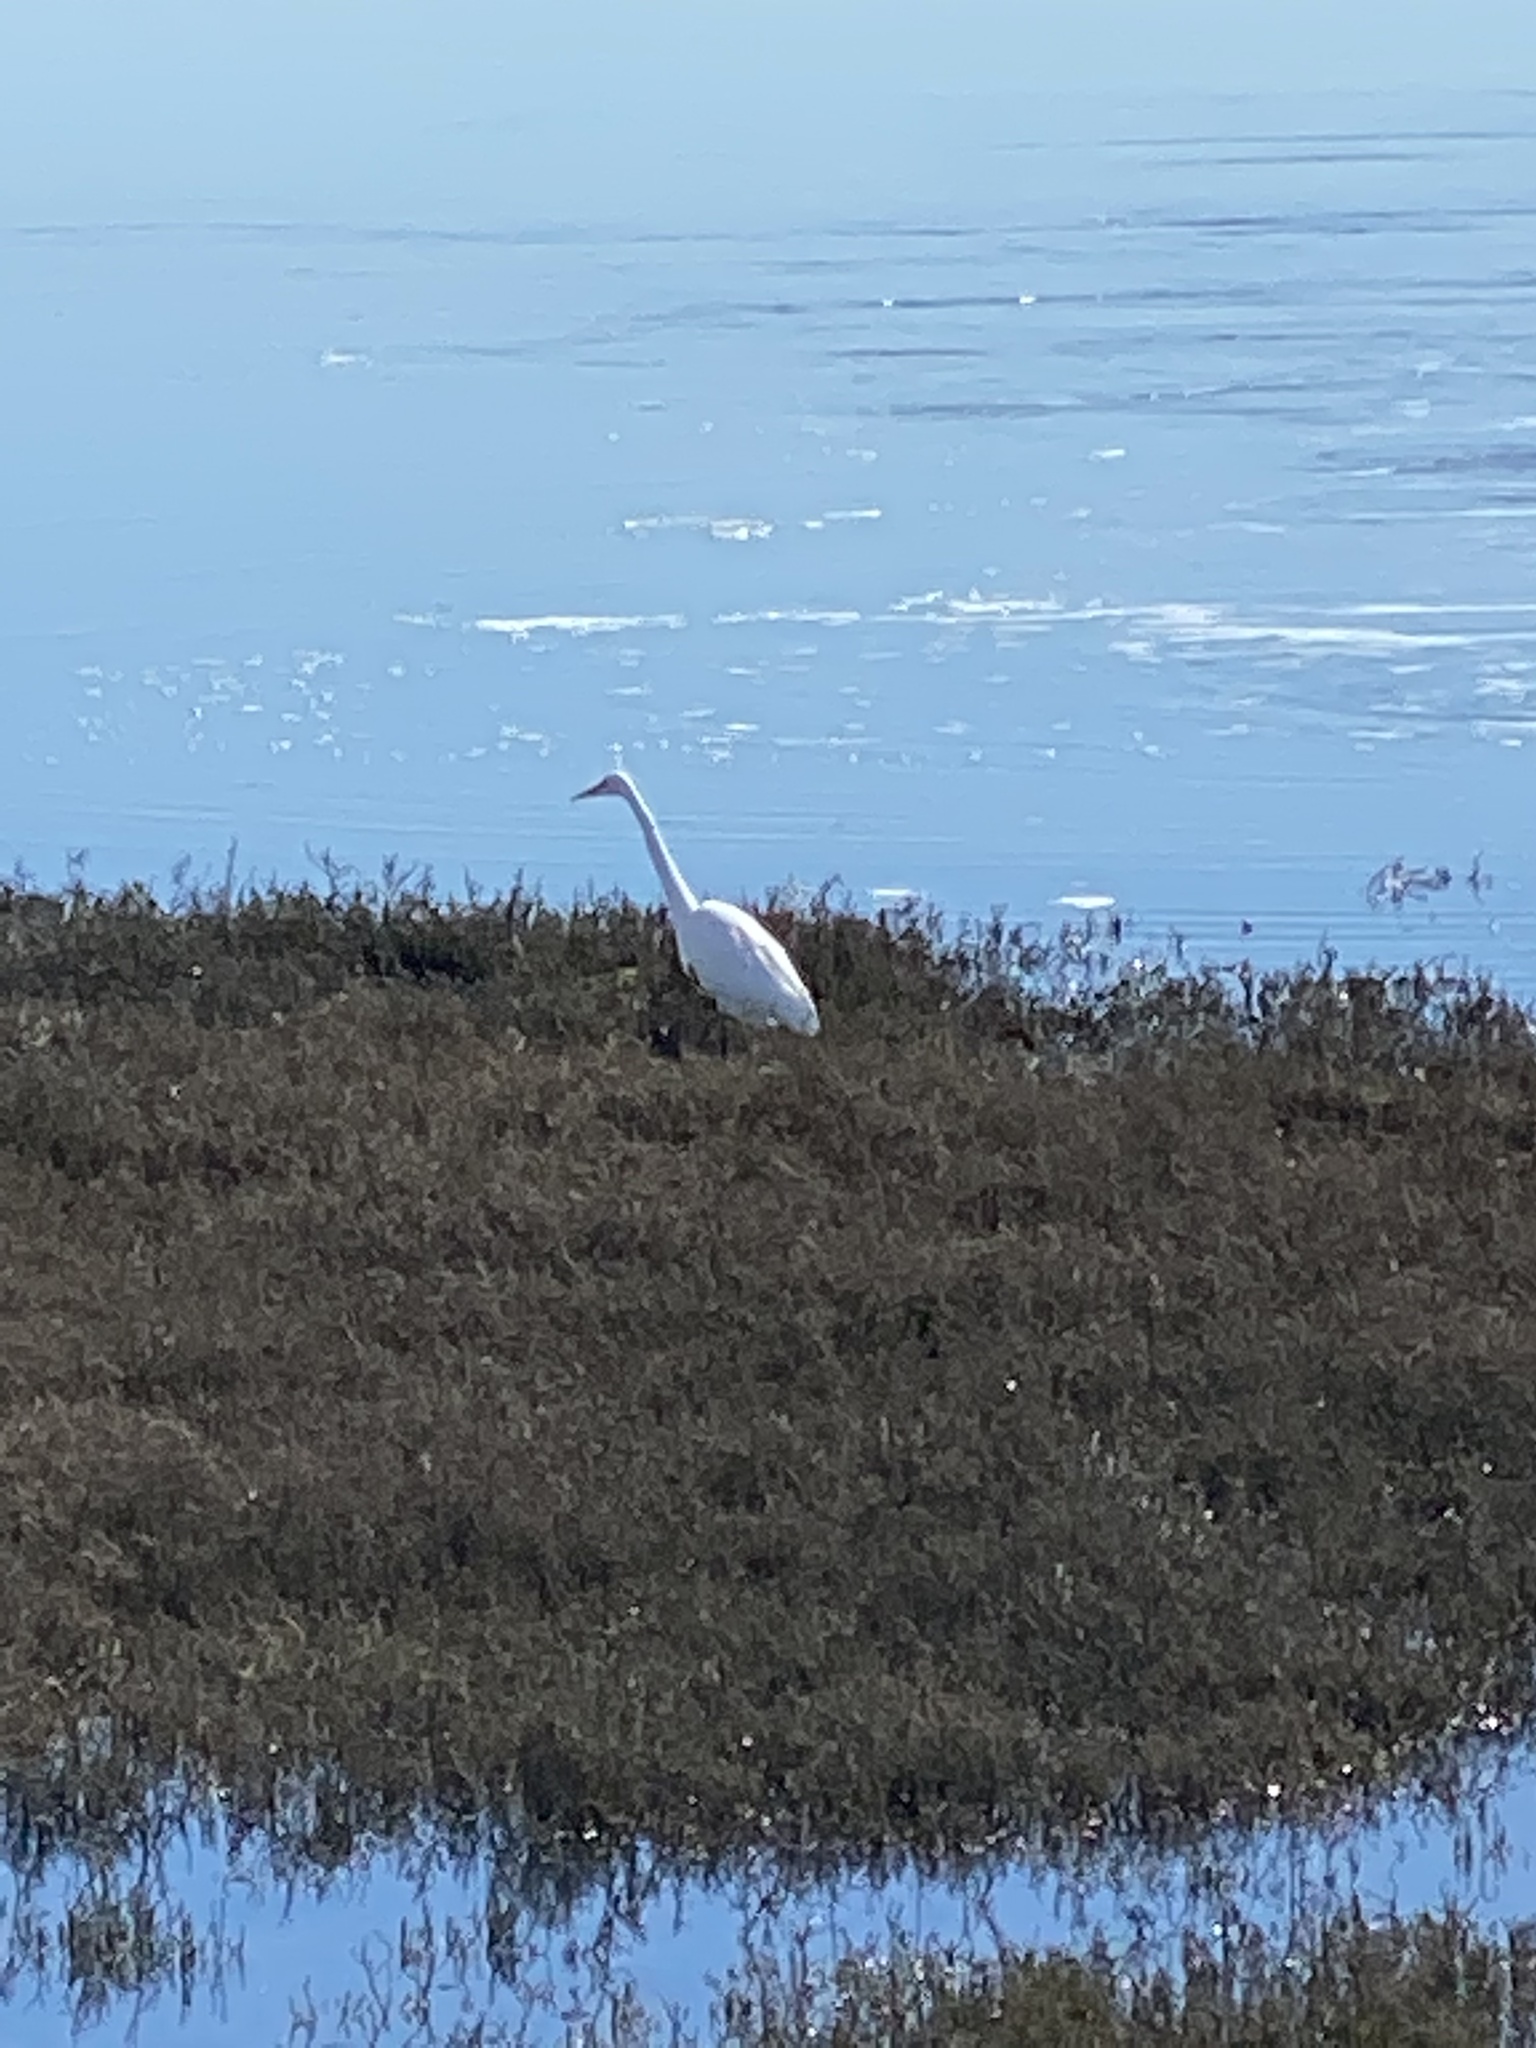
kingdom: Animalia
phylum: Chordata
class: Aves
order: Pelecaniformes
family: Ardeidae
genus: Ardea
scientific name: Ardea alba
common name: Great egret
